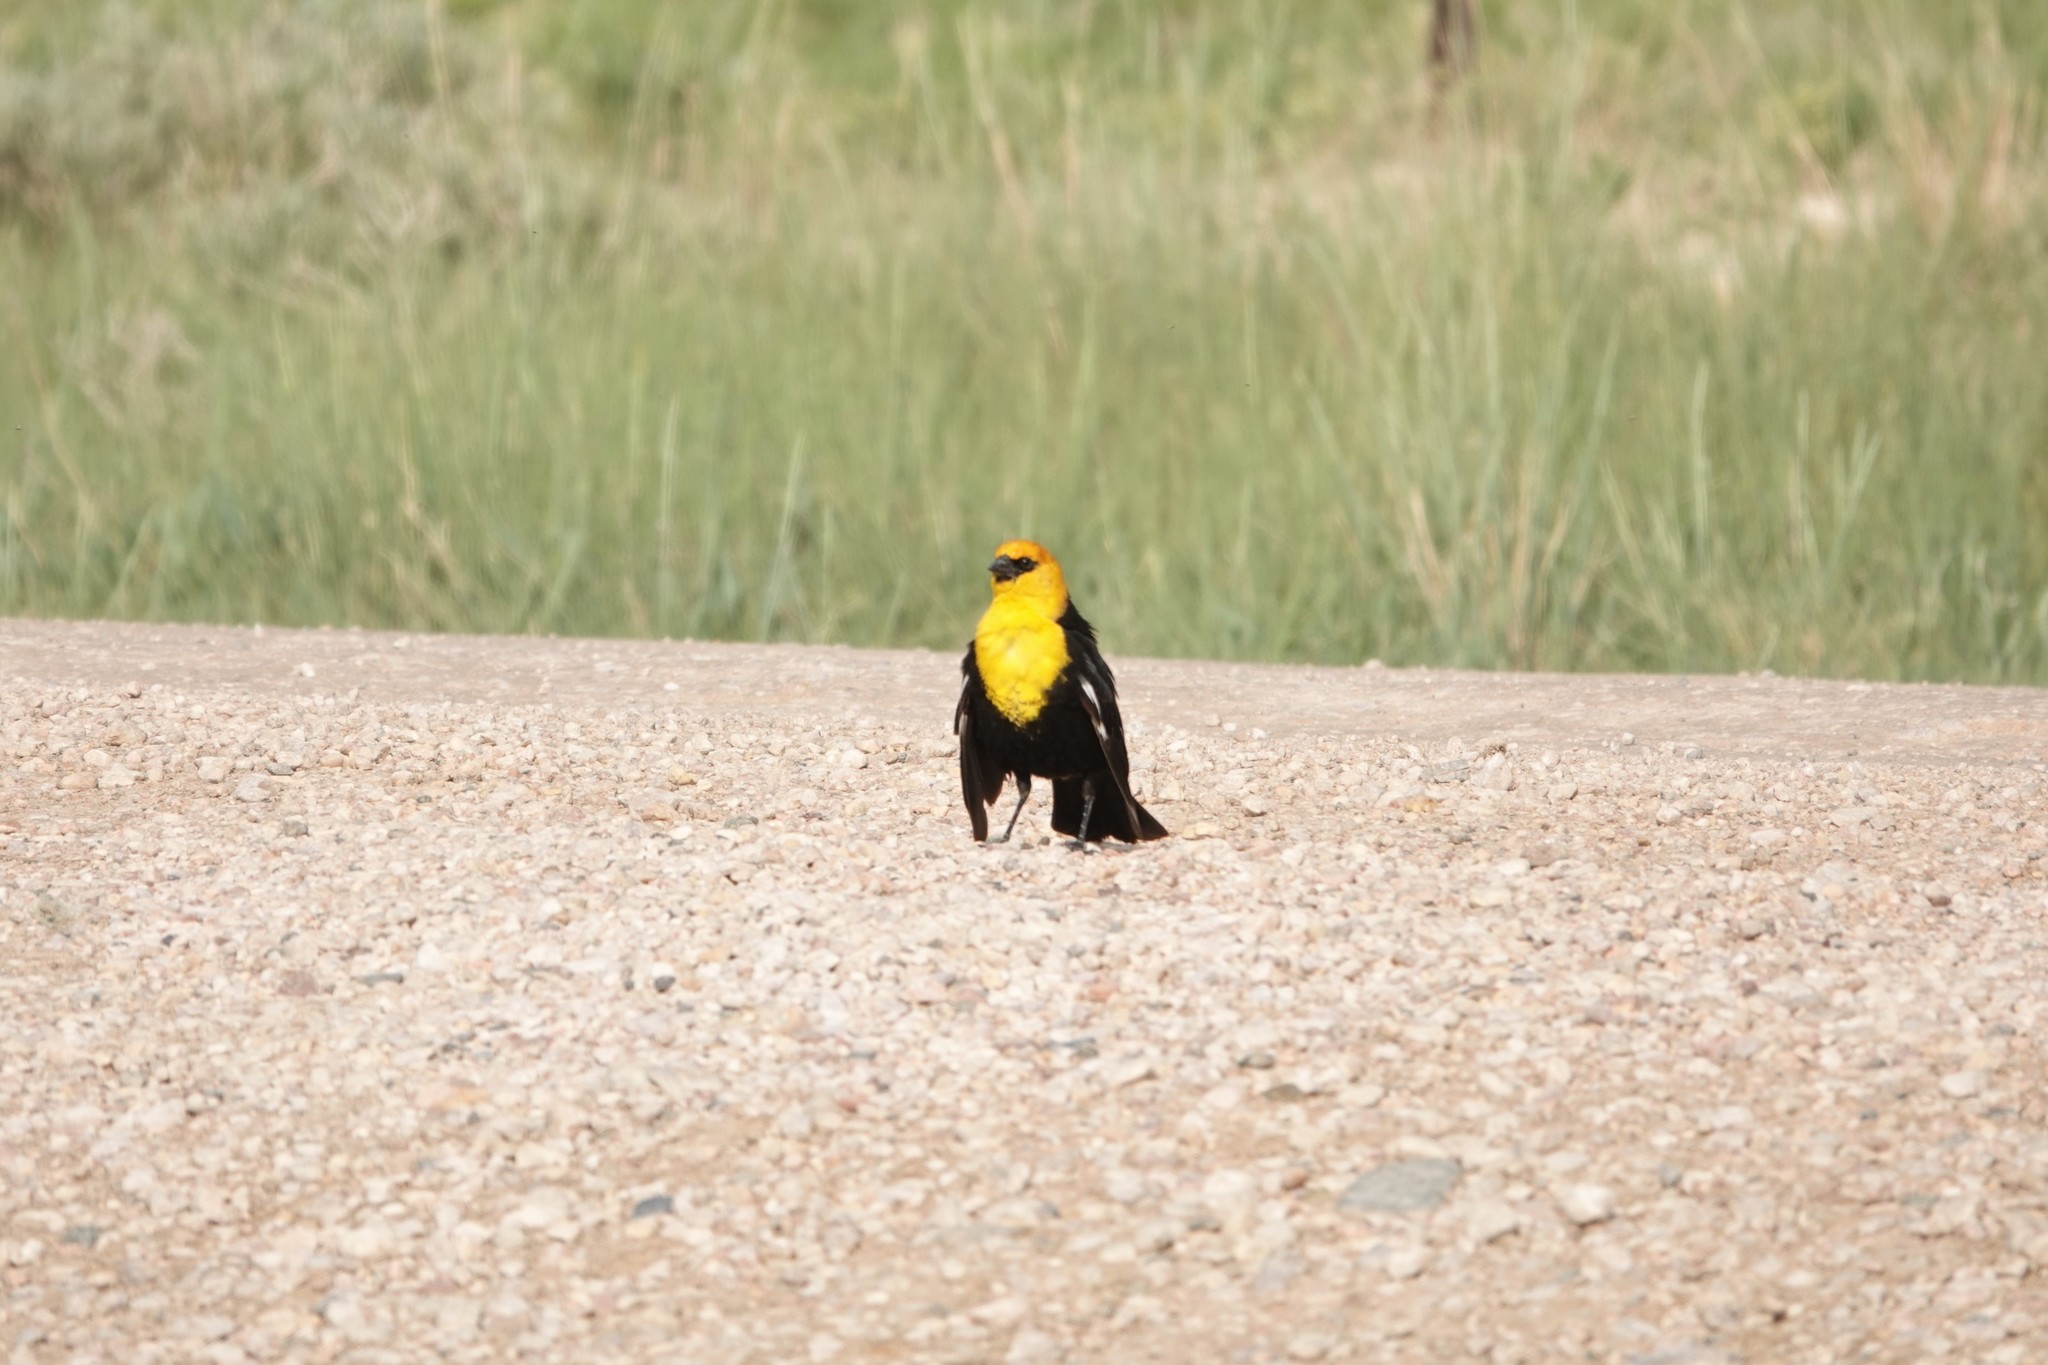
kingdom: Animalia
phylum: Chordata
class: Aves
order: Passeriformes
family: Icteridae
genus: Xanthocephalus
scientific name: Xanthocephalus xanthocephalus
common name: Yellow-headed blackbird
